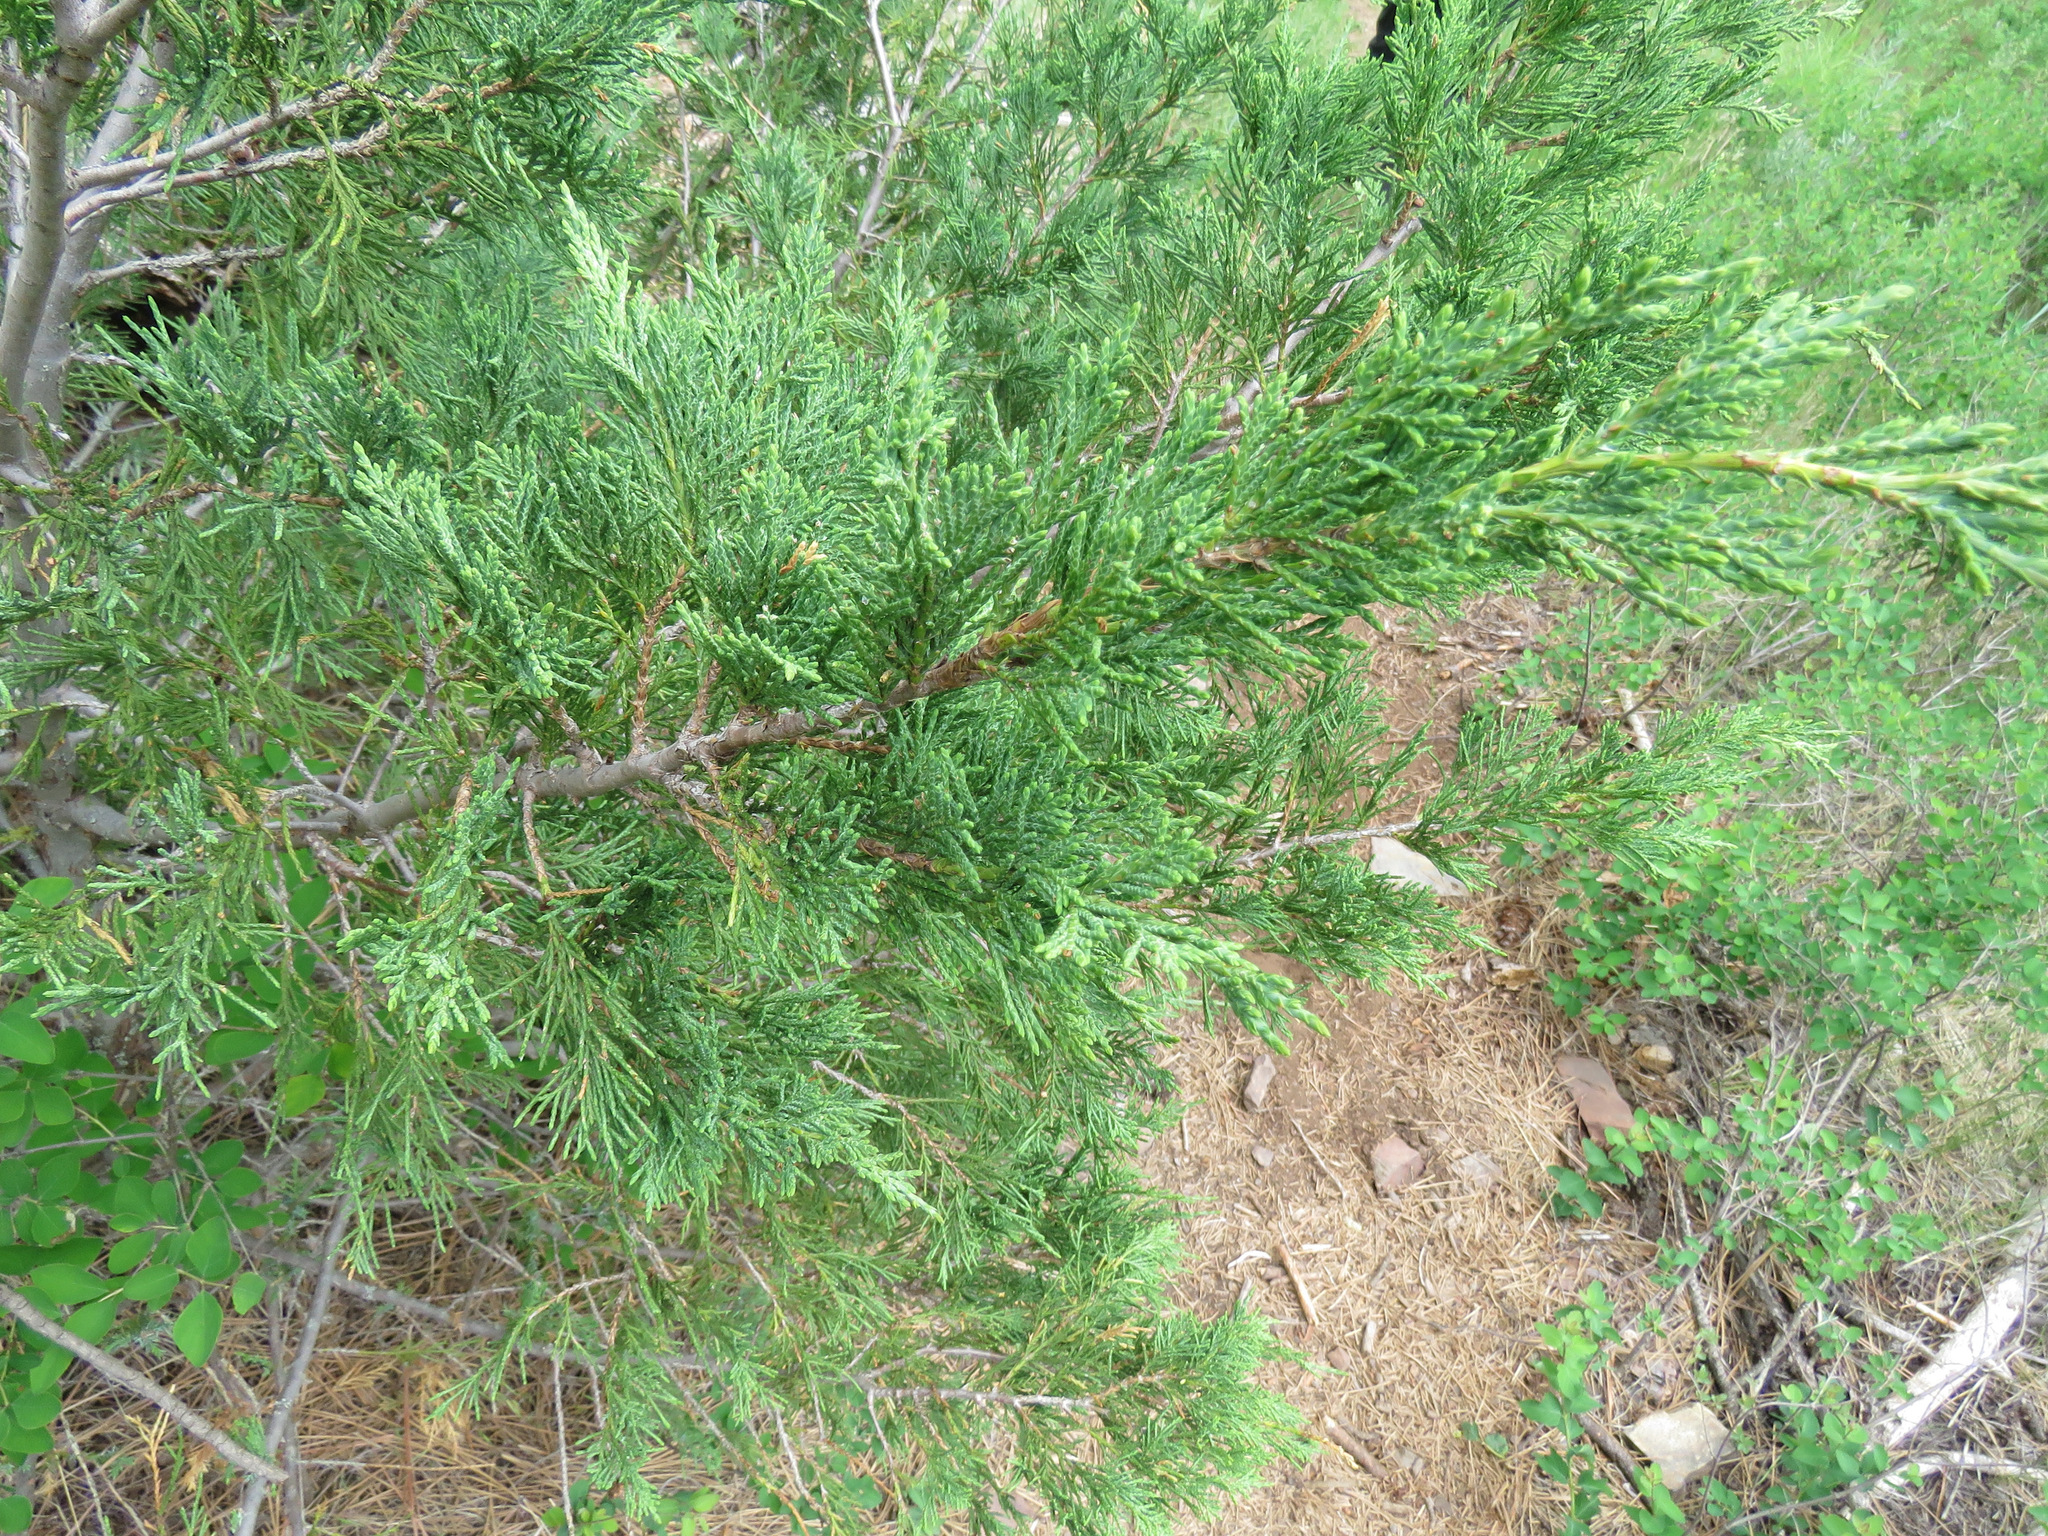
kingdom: Plantae
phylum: Tracheophyta
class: Pinopsida
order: Pinales
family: Cupressaceae
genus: Juniperus
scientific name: Juniperus scopulorum
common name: Rocky mountain juniper
